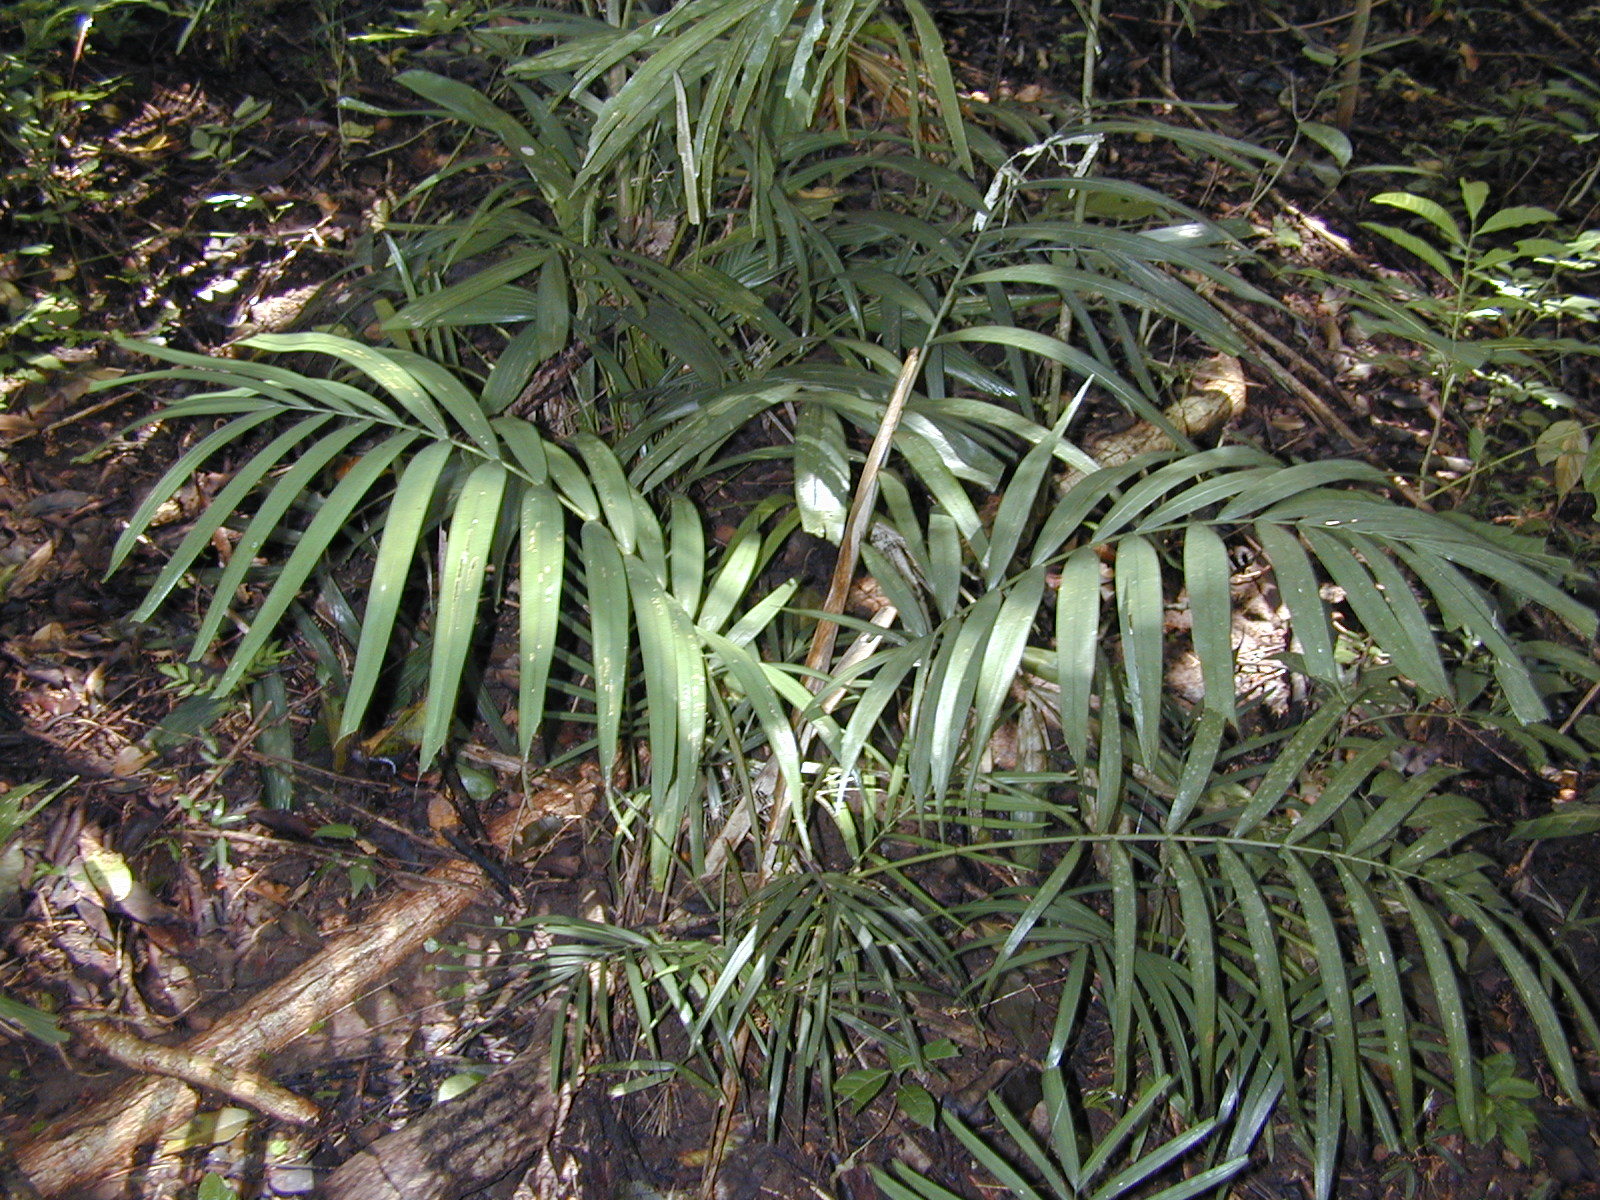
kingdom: Plantae
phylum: Tracheophyta
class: Liliopsida
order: Arecales
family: Arecaceae
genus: Ptychosperma
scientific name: Ptychosperma macarthurii
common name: Macarthur palm
